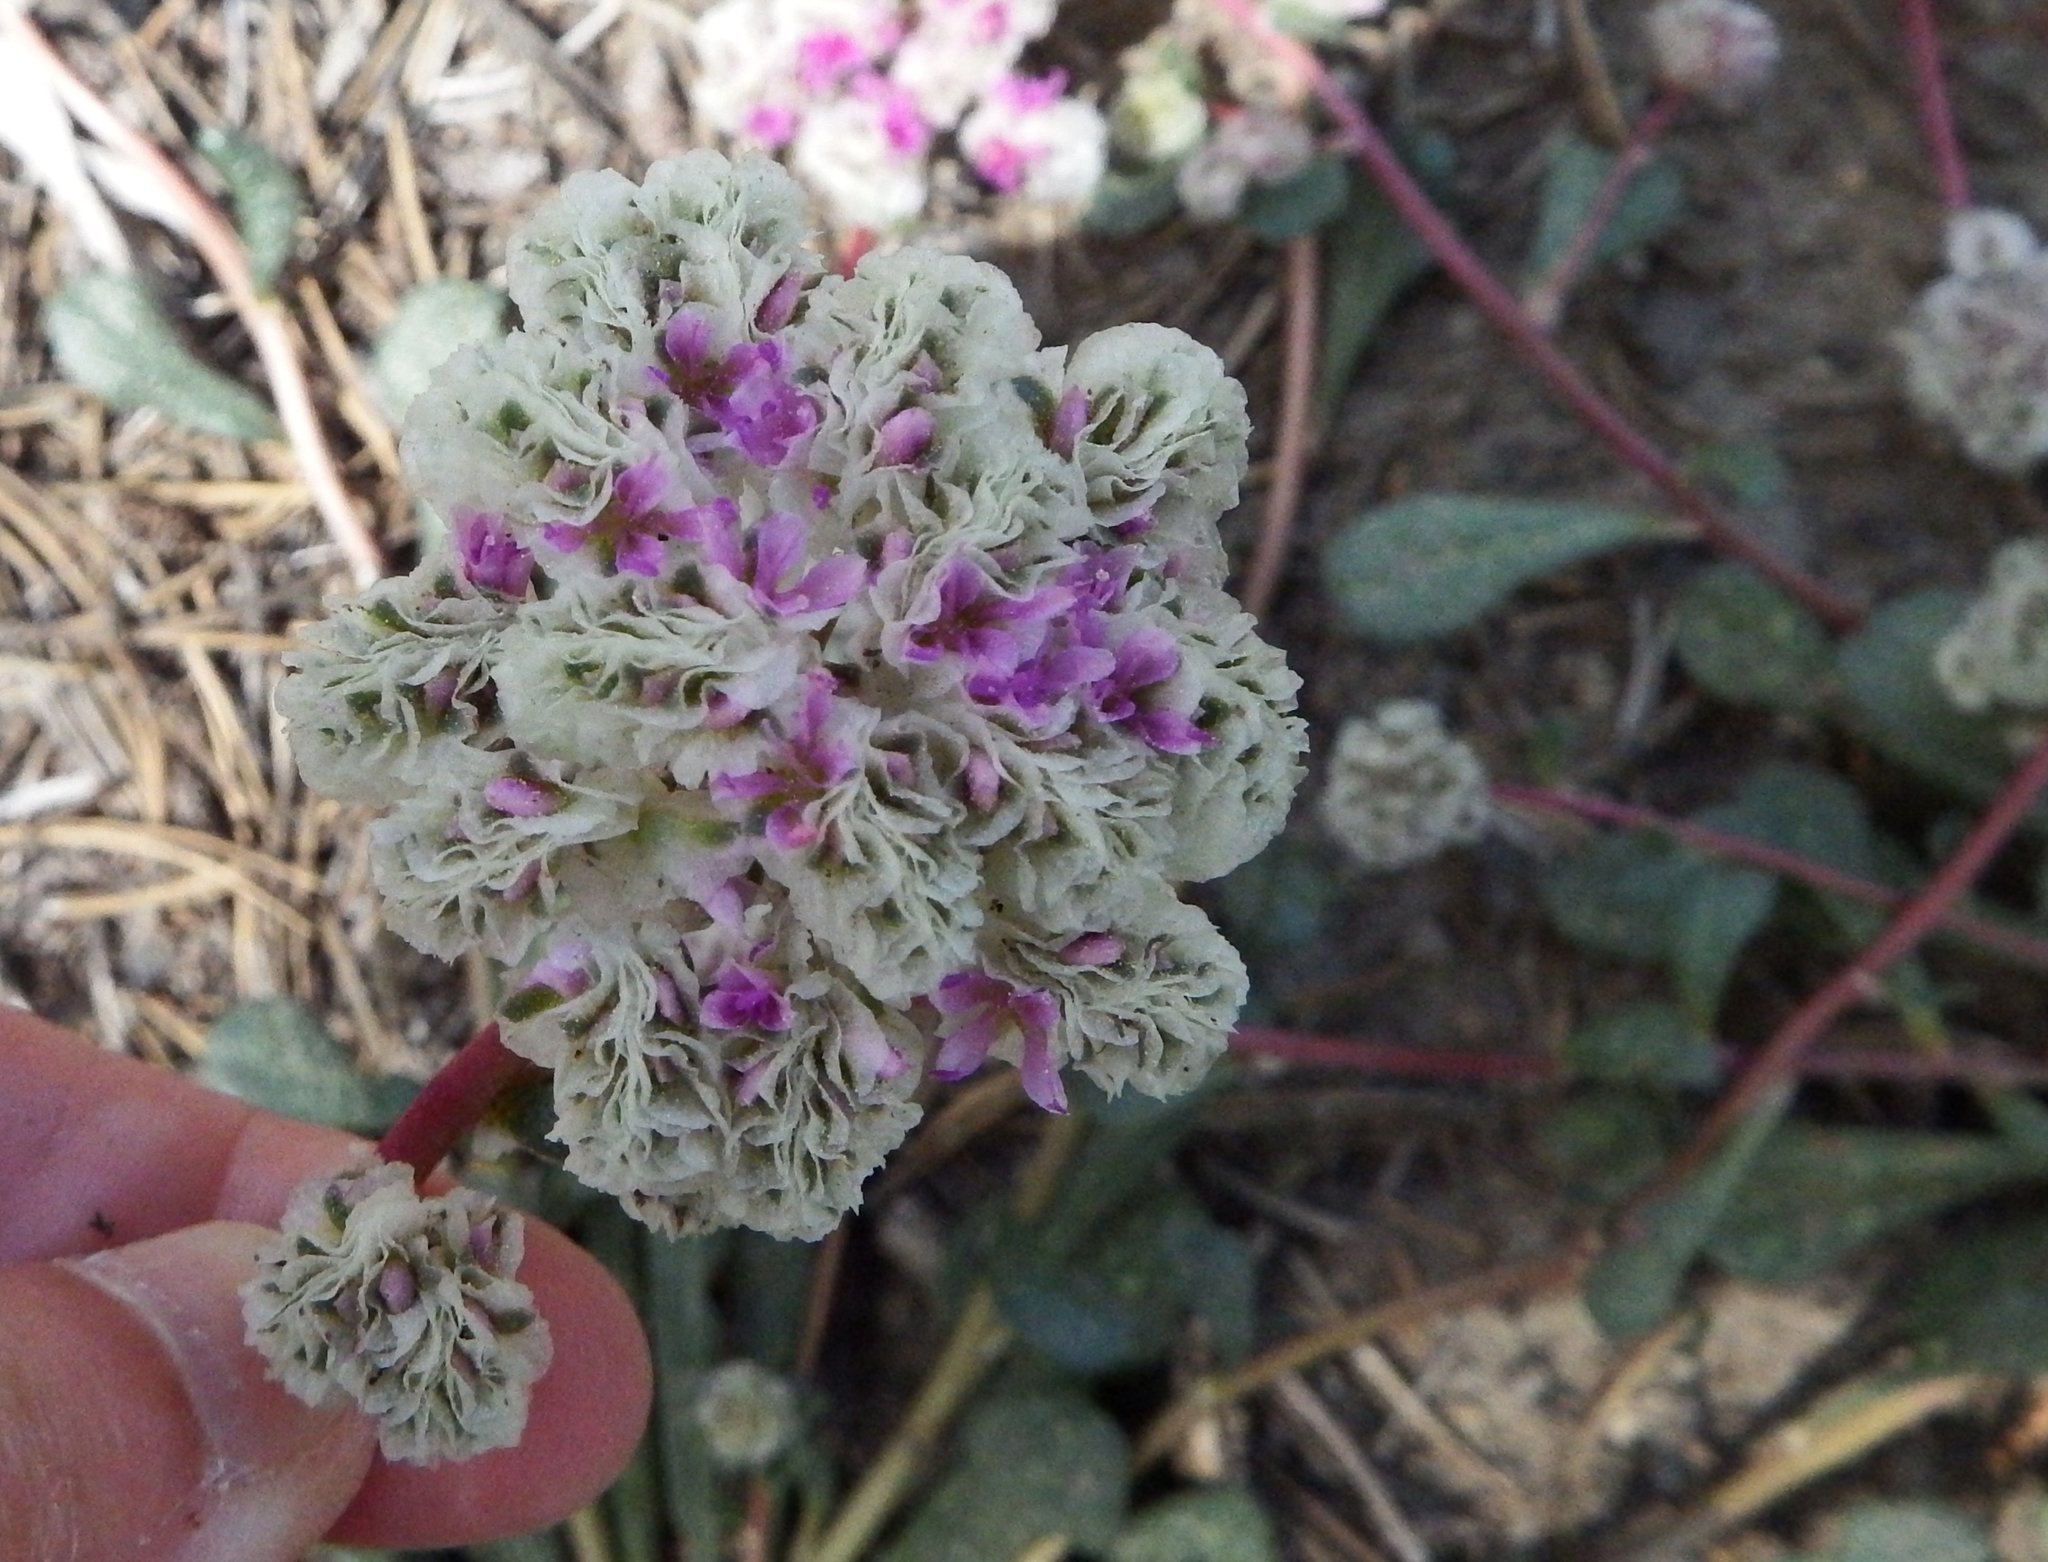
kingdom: Plantae
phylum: Tracheophyta
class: Magnoliopsida
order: Caryophyllales
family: Montiaceae
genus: Calyptridium
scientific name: Calyptridium monospermum
